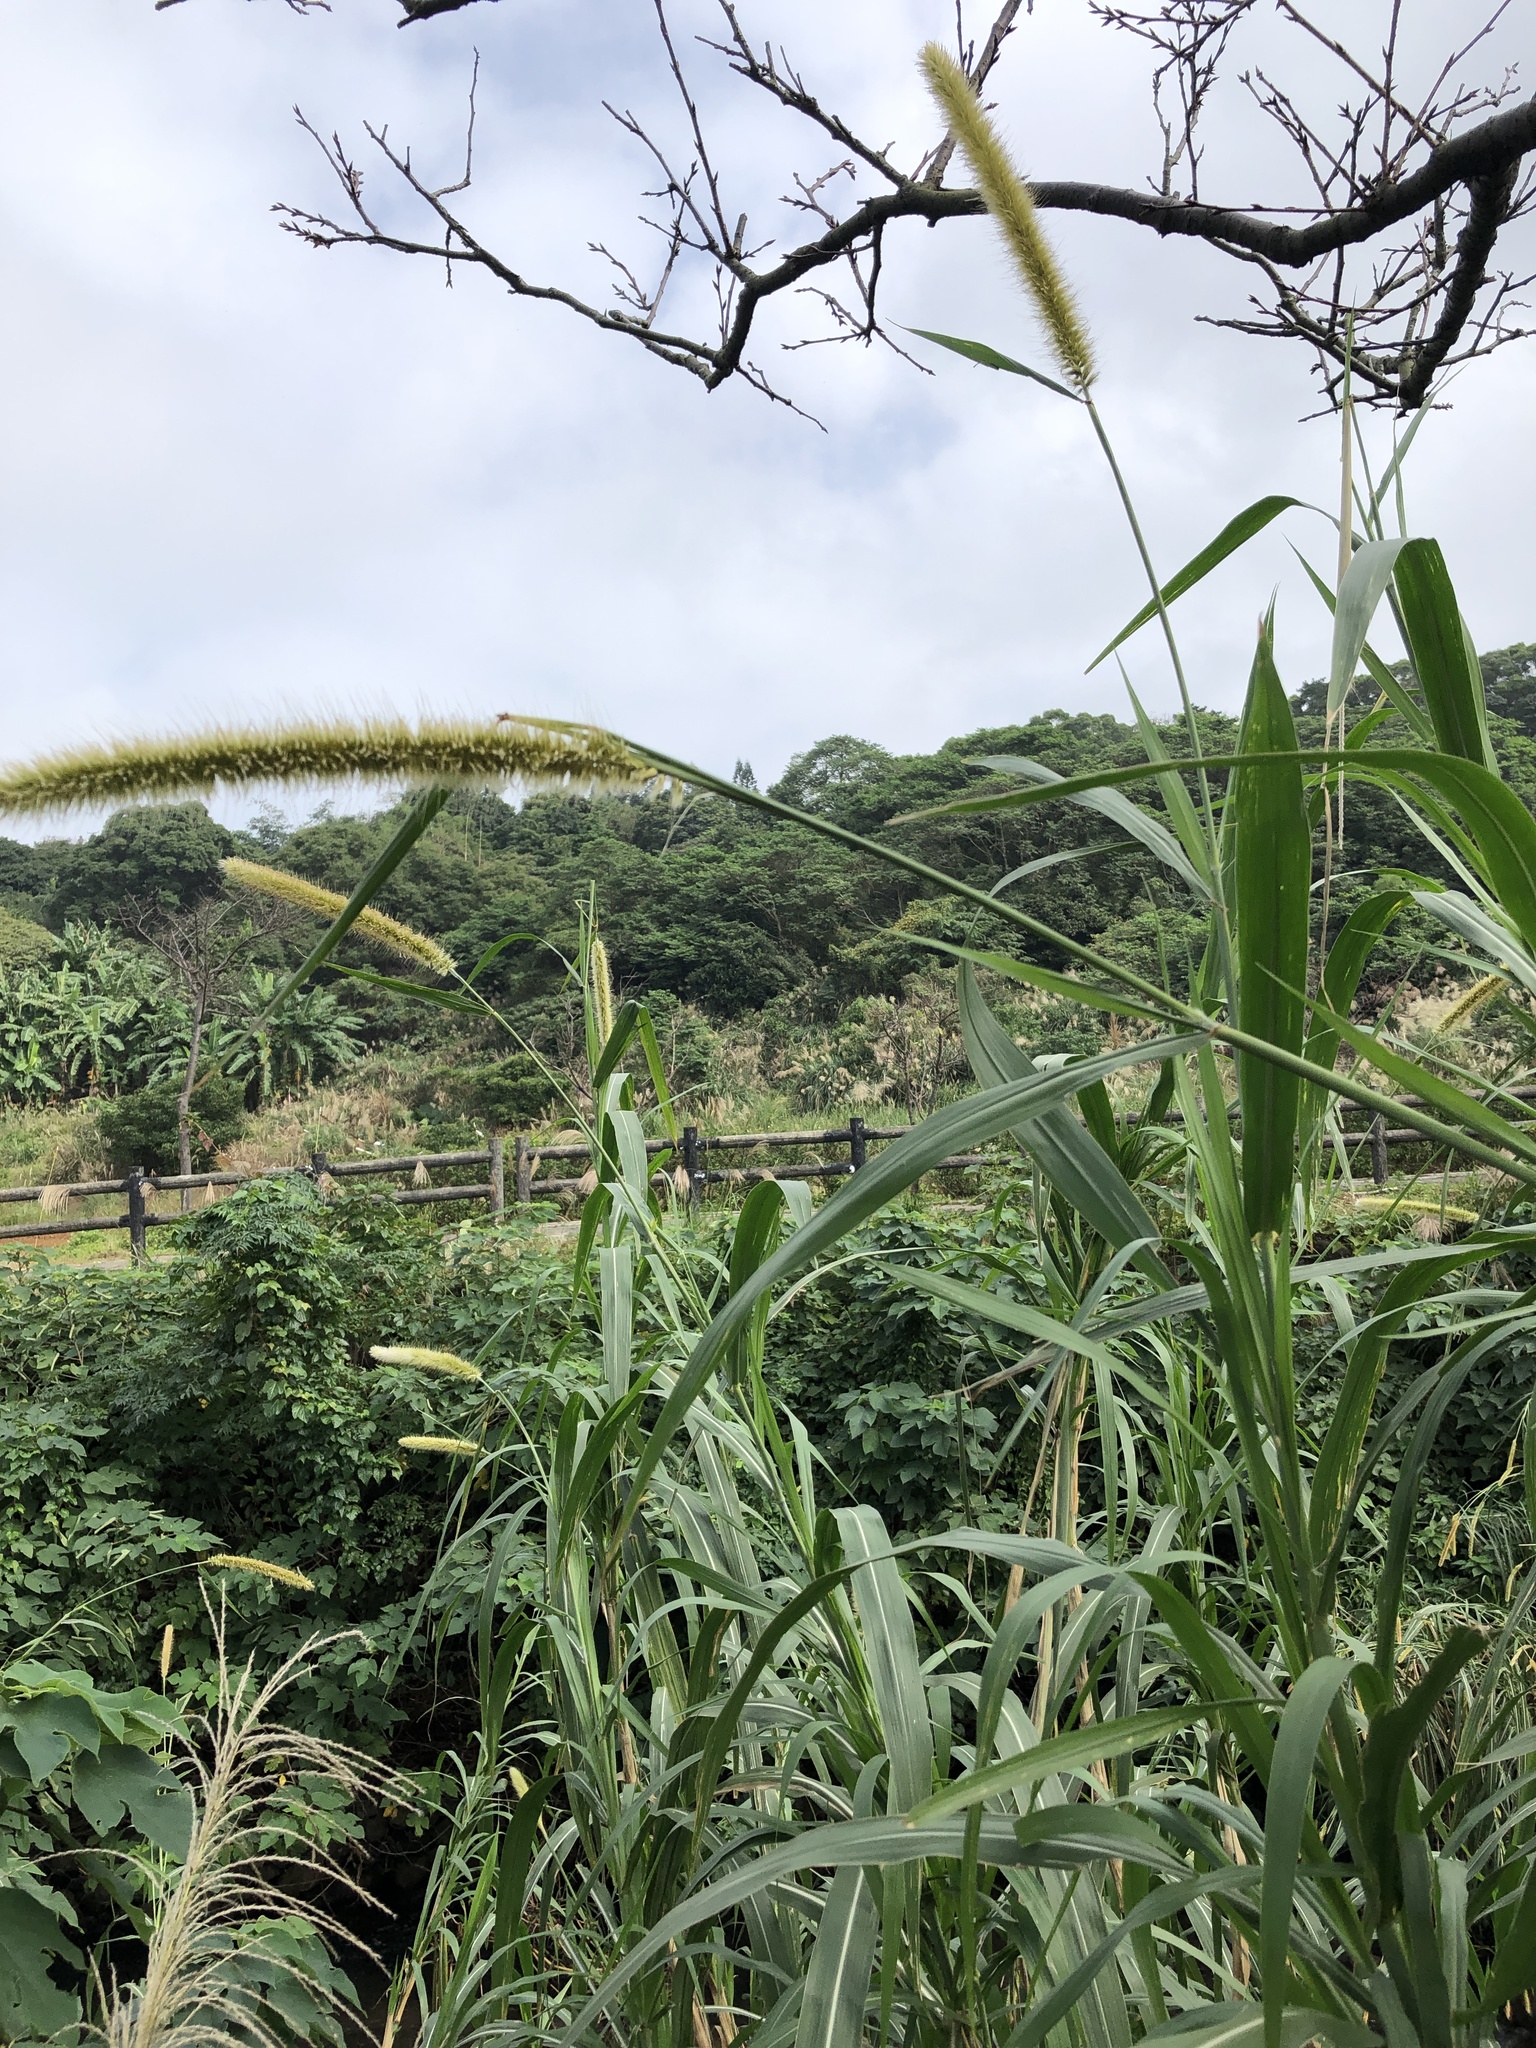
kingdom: Plantae
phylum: Tracheophyta
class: Liliopsida
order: Poales
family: Poaceae
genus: Cenchrus
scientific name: Cenchrus purpureus
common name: Elephant grass
